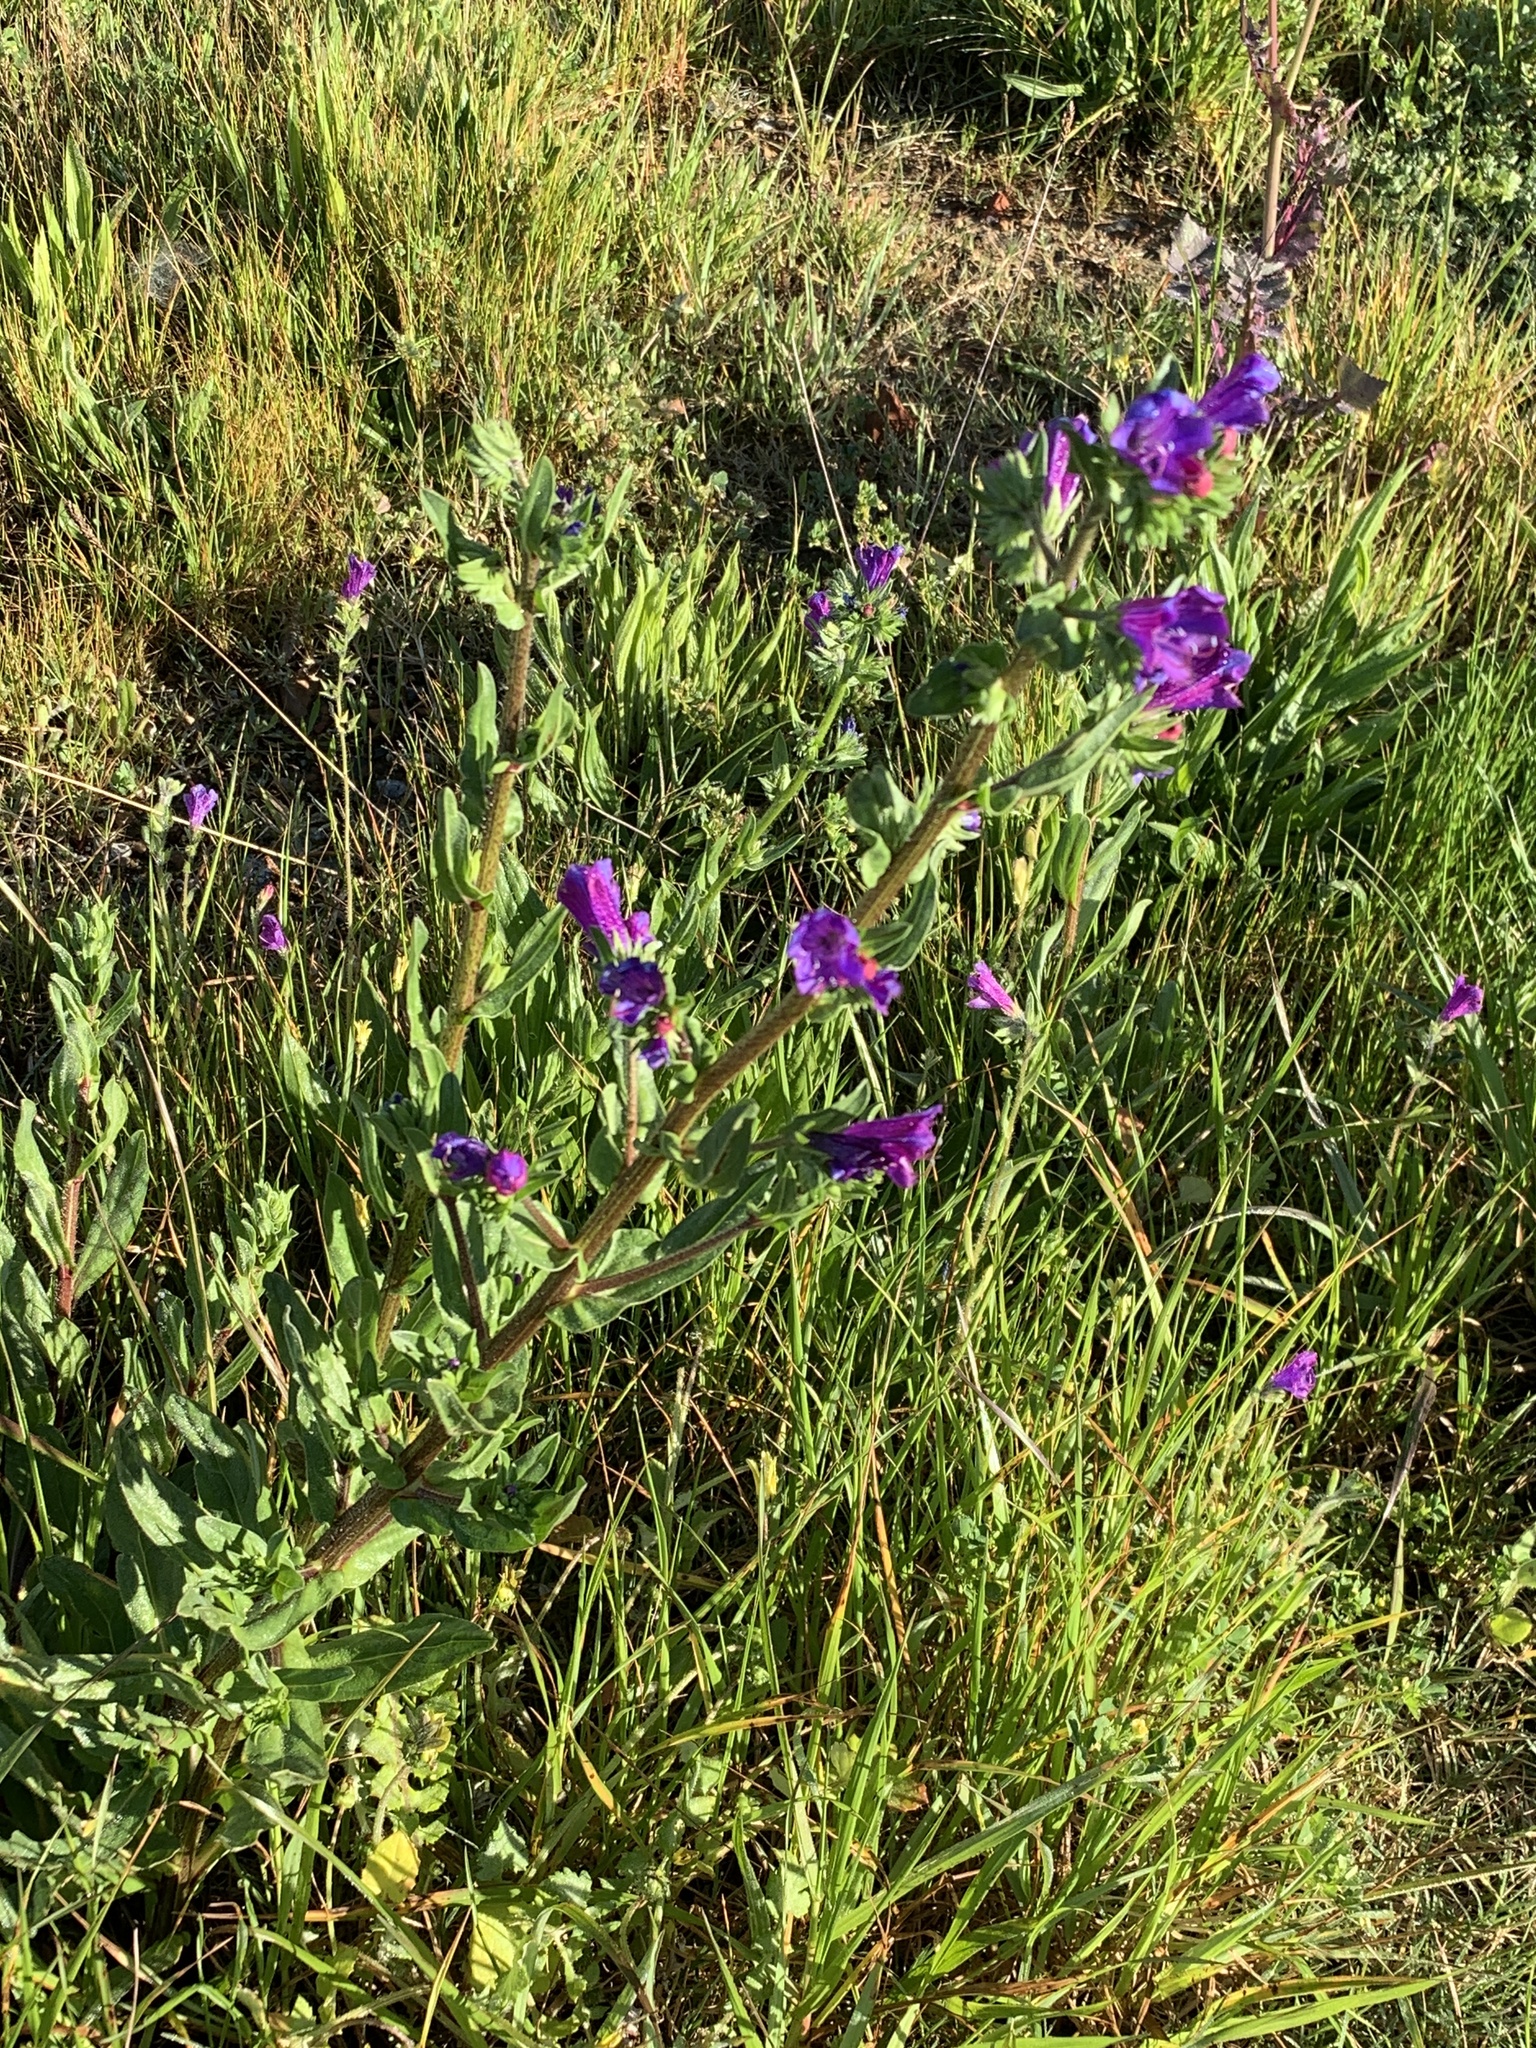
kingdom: Plantae
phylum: Tracheophyta
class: Magnoliopsida
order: Boraginales
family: Boraginaceae
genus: Echium
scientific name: Echium plantagineum
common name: Purple viper's-bugloss
